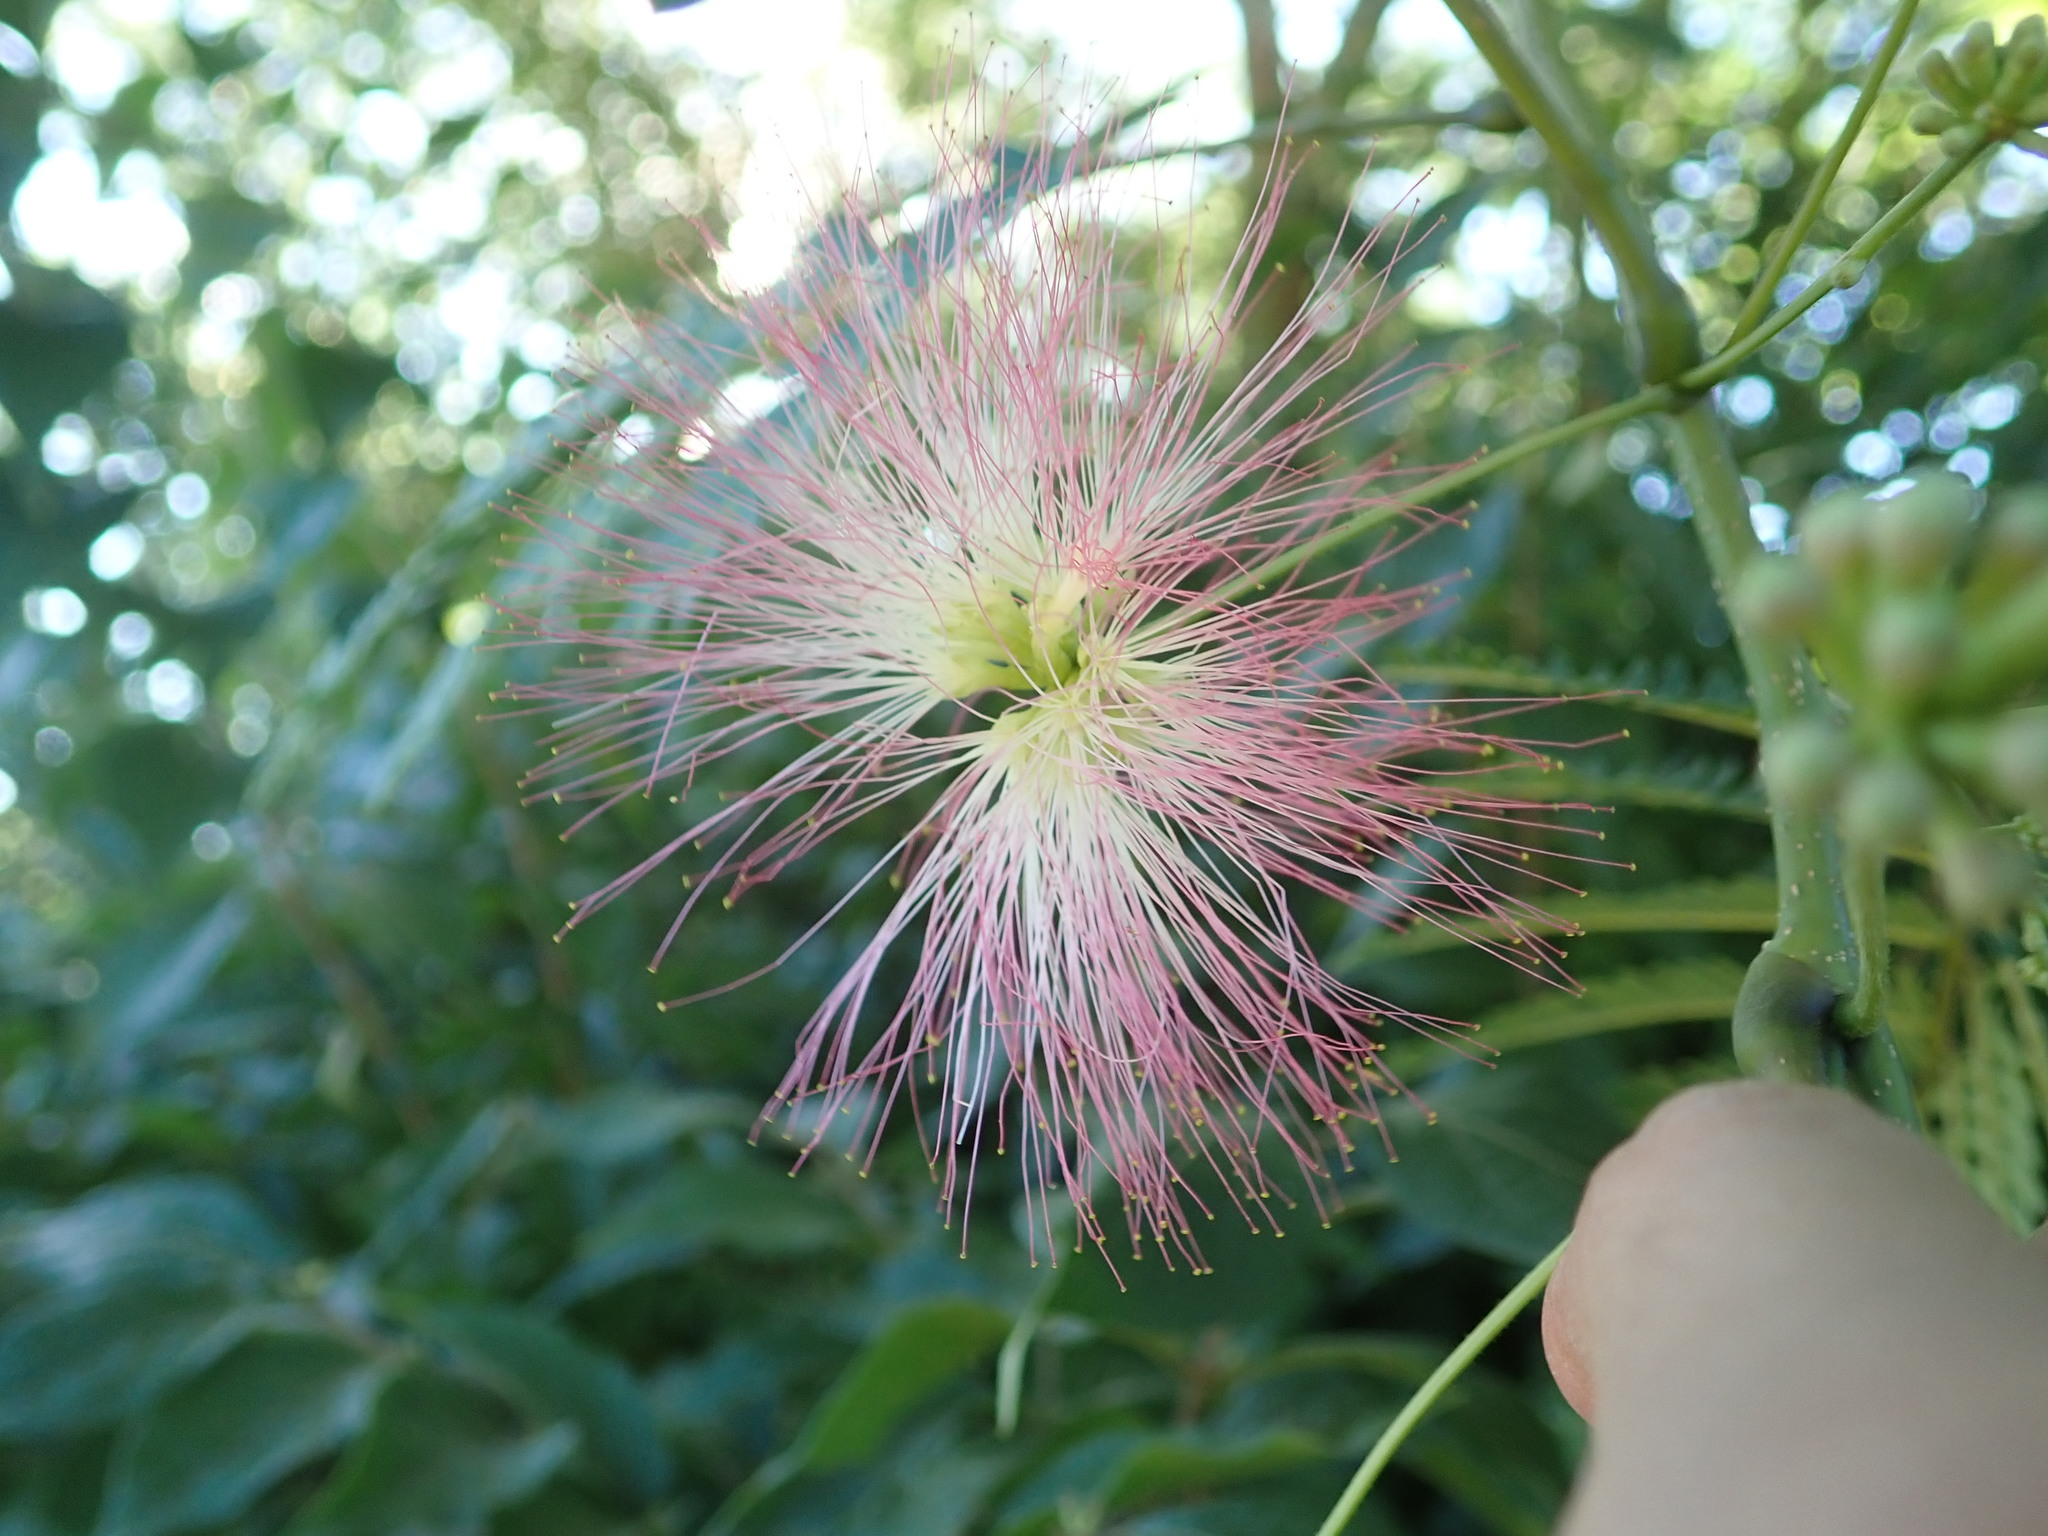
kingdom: Plantae
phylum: Tracheophyta
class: Magnoliopsida
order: Fabales
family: Fabaceae
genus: Albizia
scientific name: Albizia julibrissin
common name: Silktree
